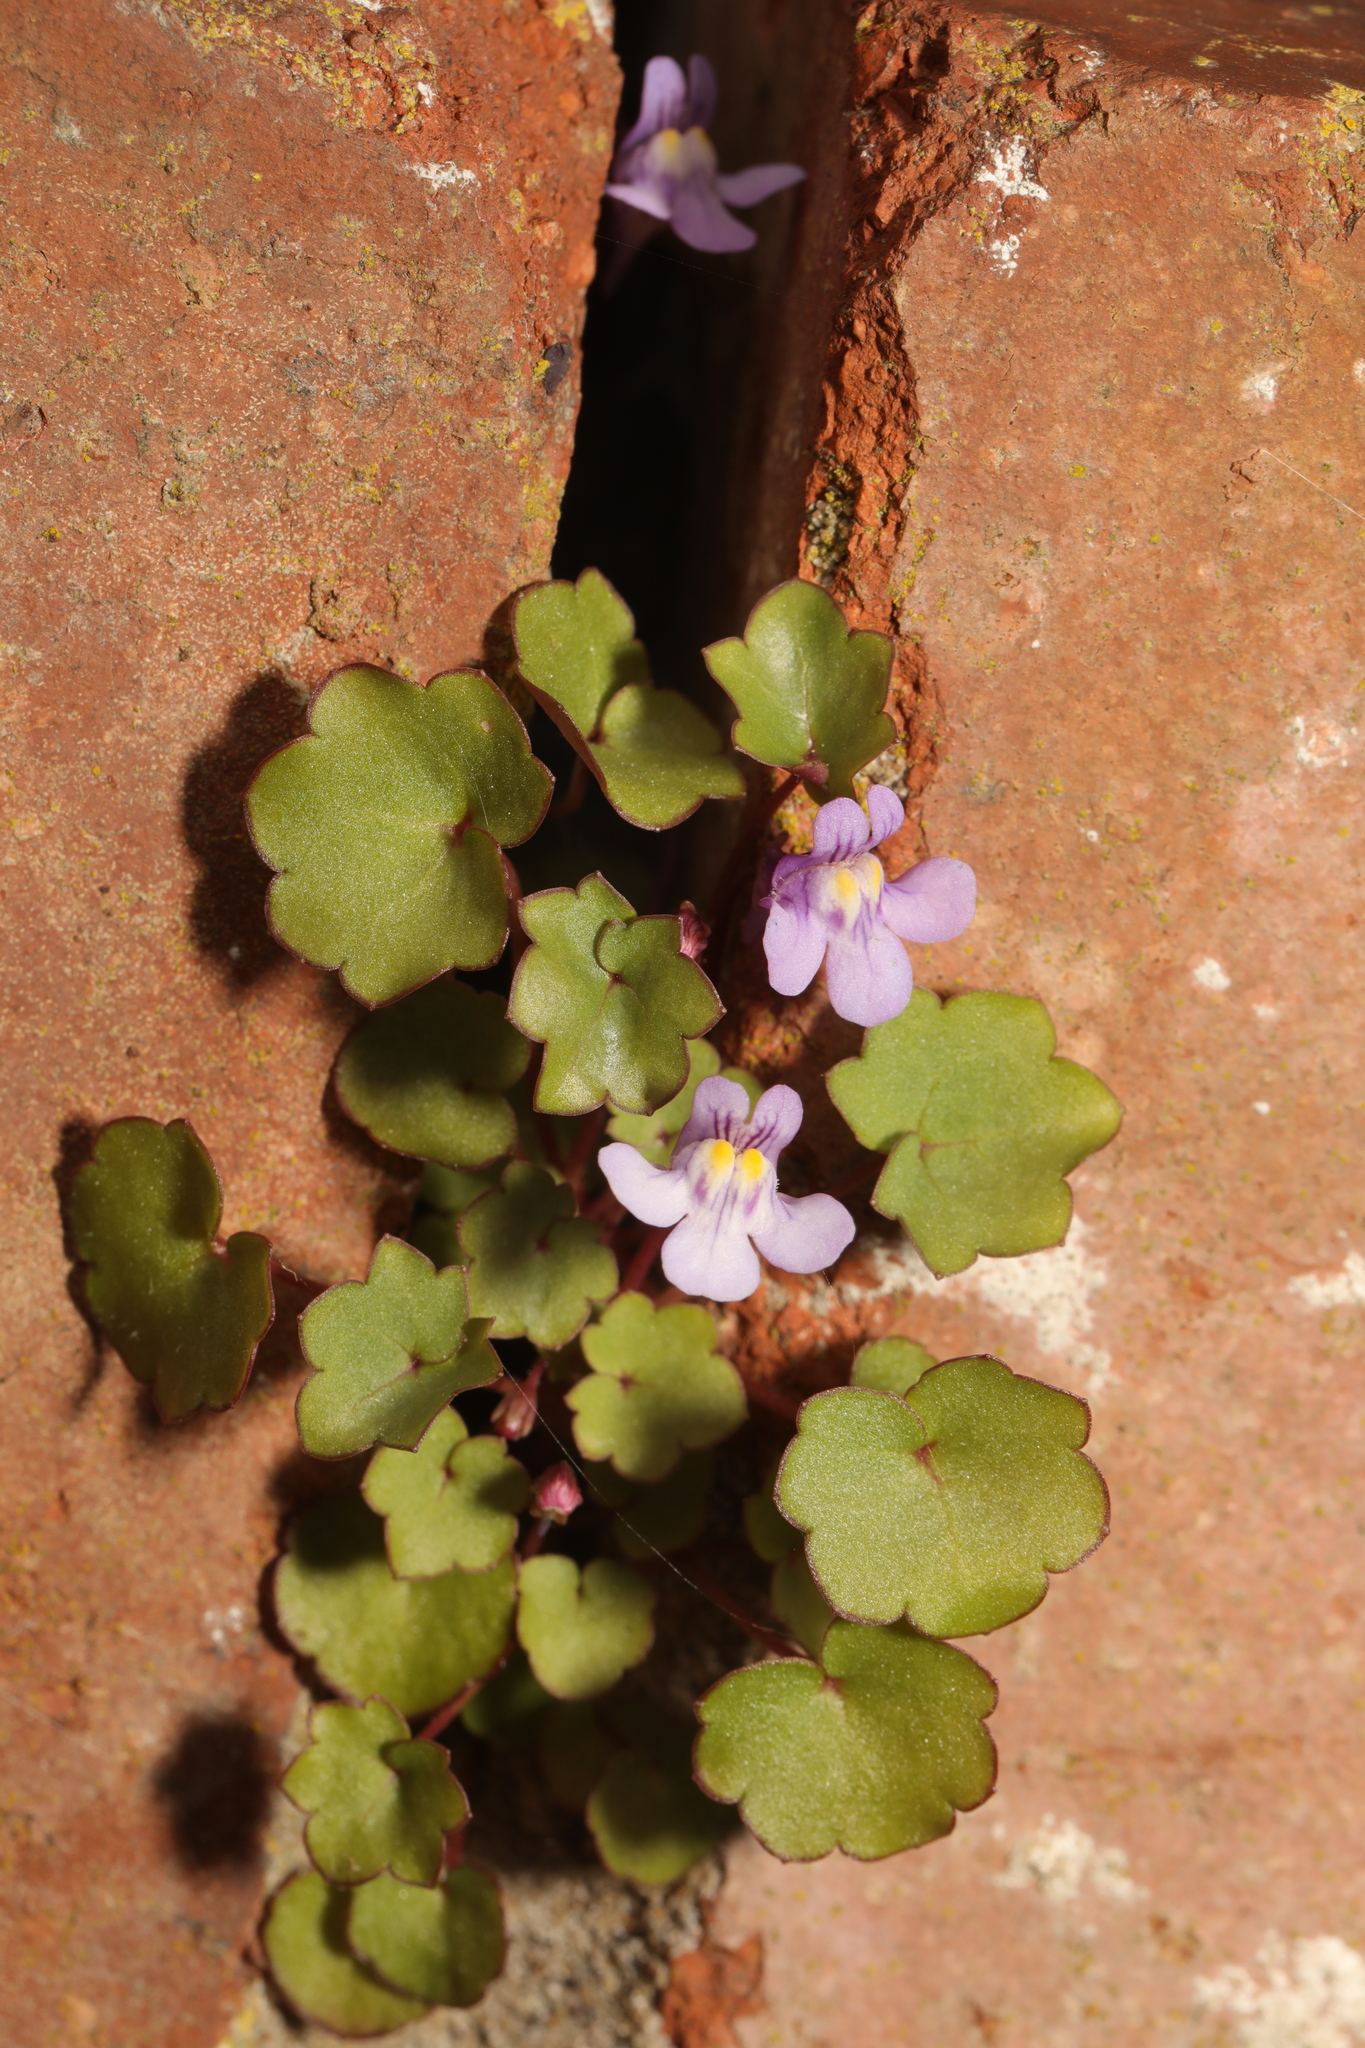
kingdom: Plantae
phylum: Tracheophyta
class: Magnoliopsida
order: Lamiales
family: Plantaginaceae
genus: Cymbalaria
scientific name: Cymbalaria muralis
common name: Ivy-leaved toadflax
